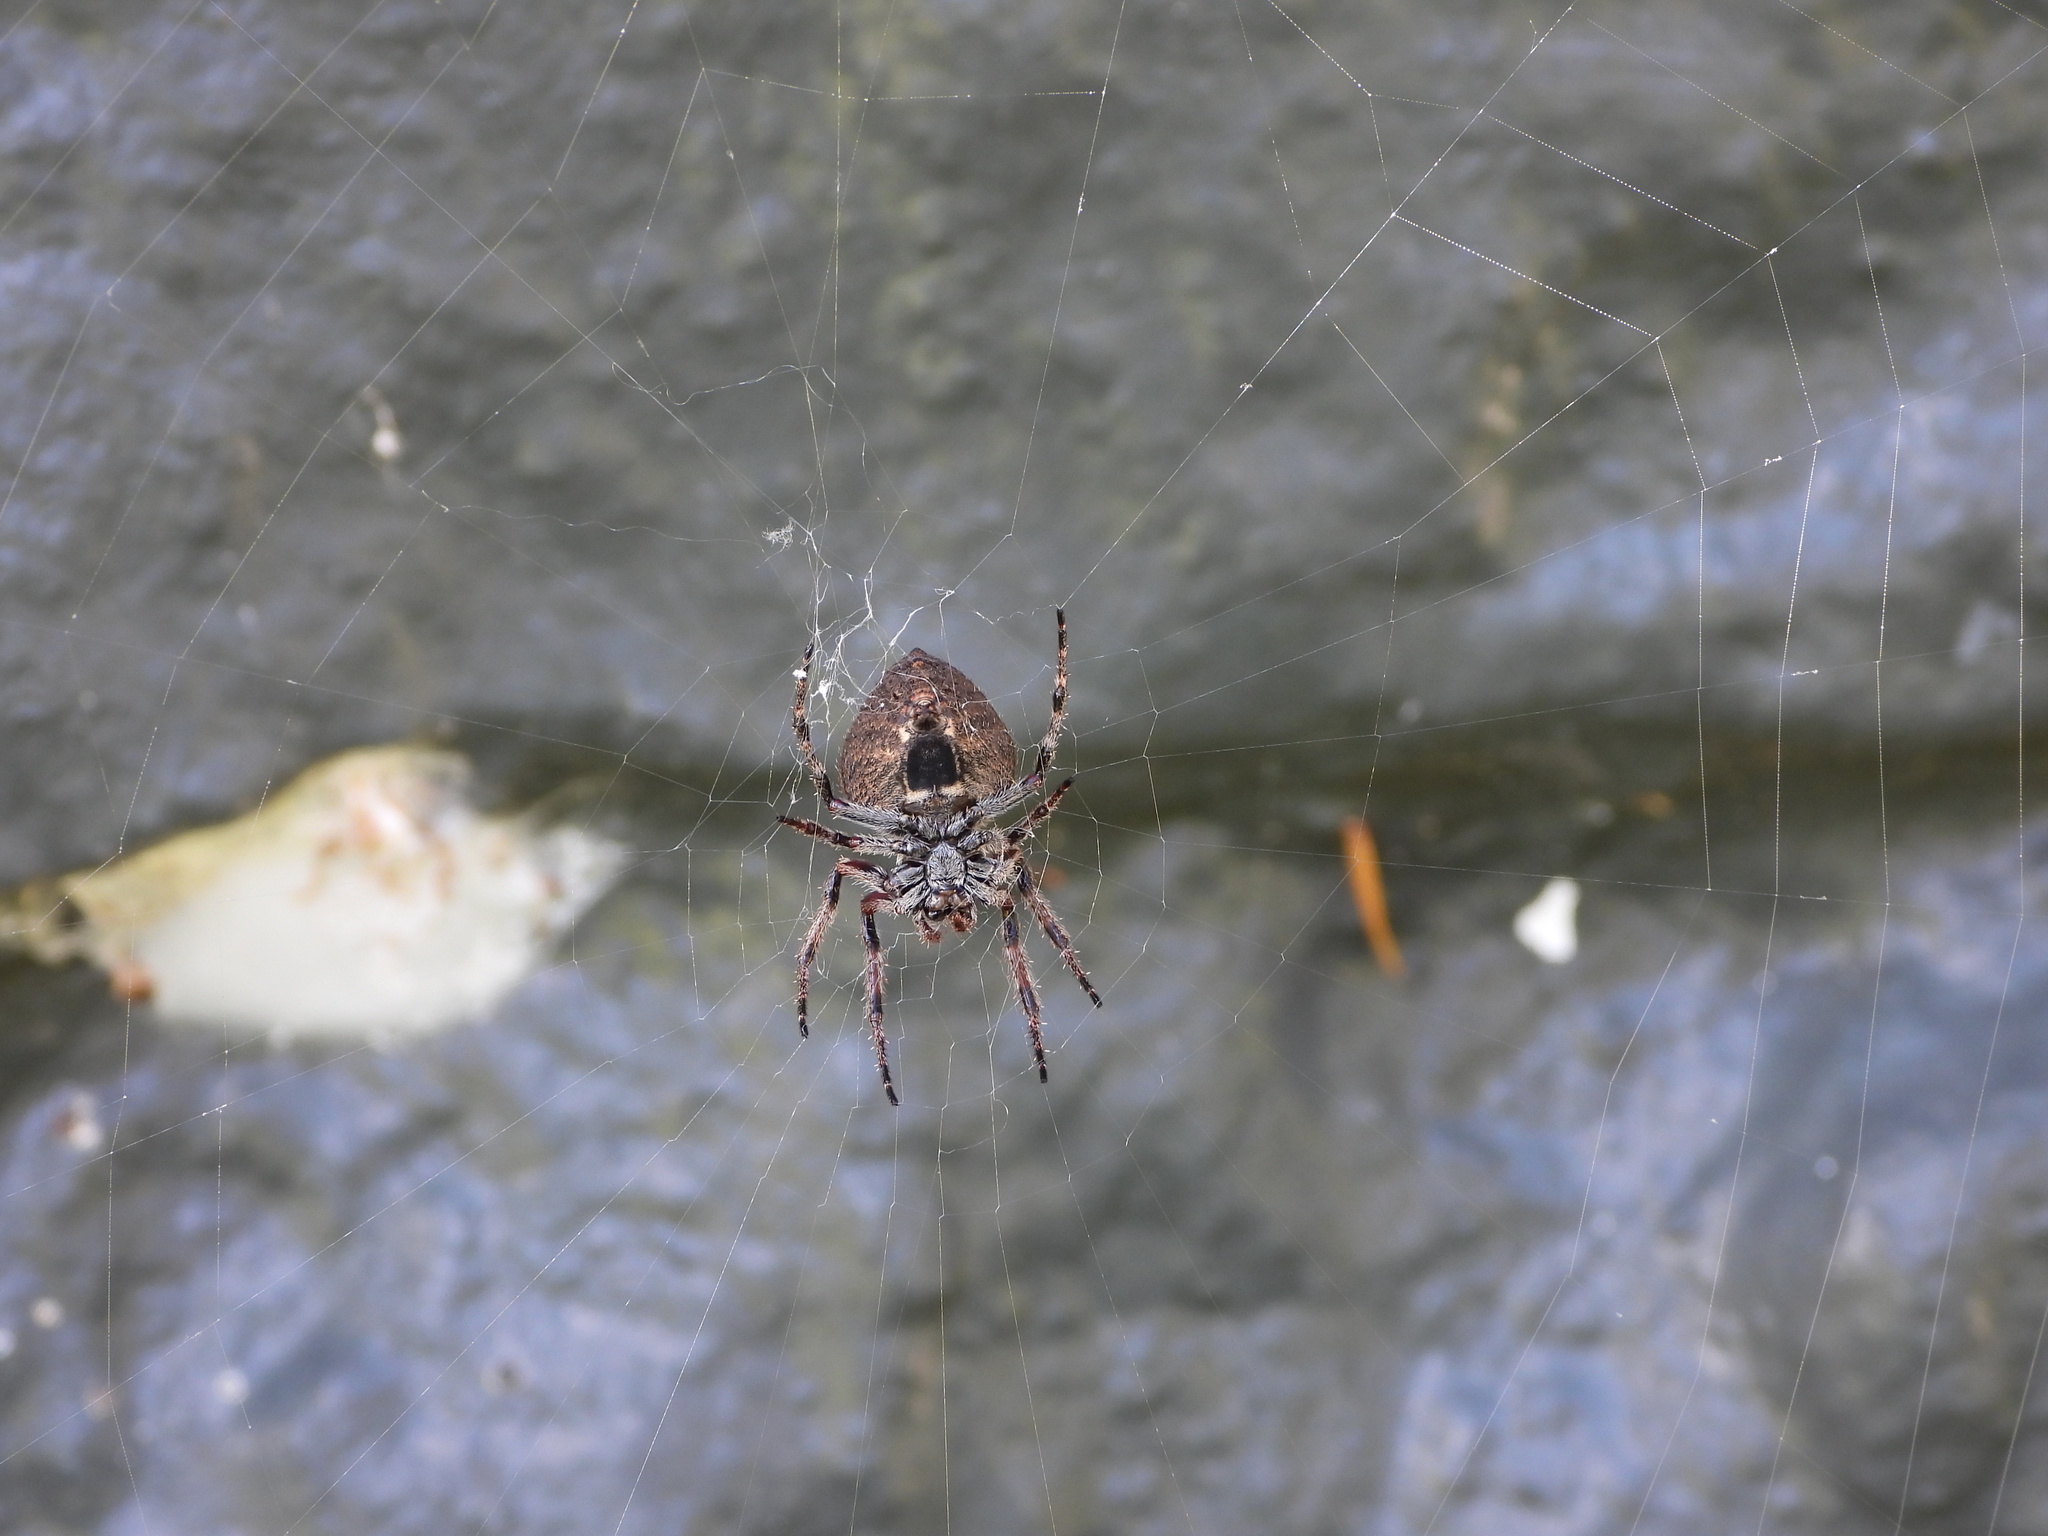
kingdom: Animalia
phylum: Arthropoda
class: Arachnida
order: Araneae
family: Araneidae
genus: Eriophora
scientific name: Eriophora pustulosa
